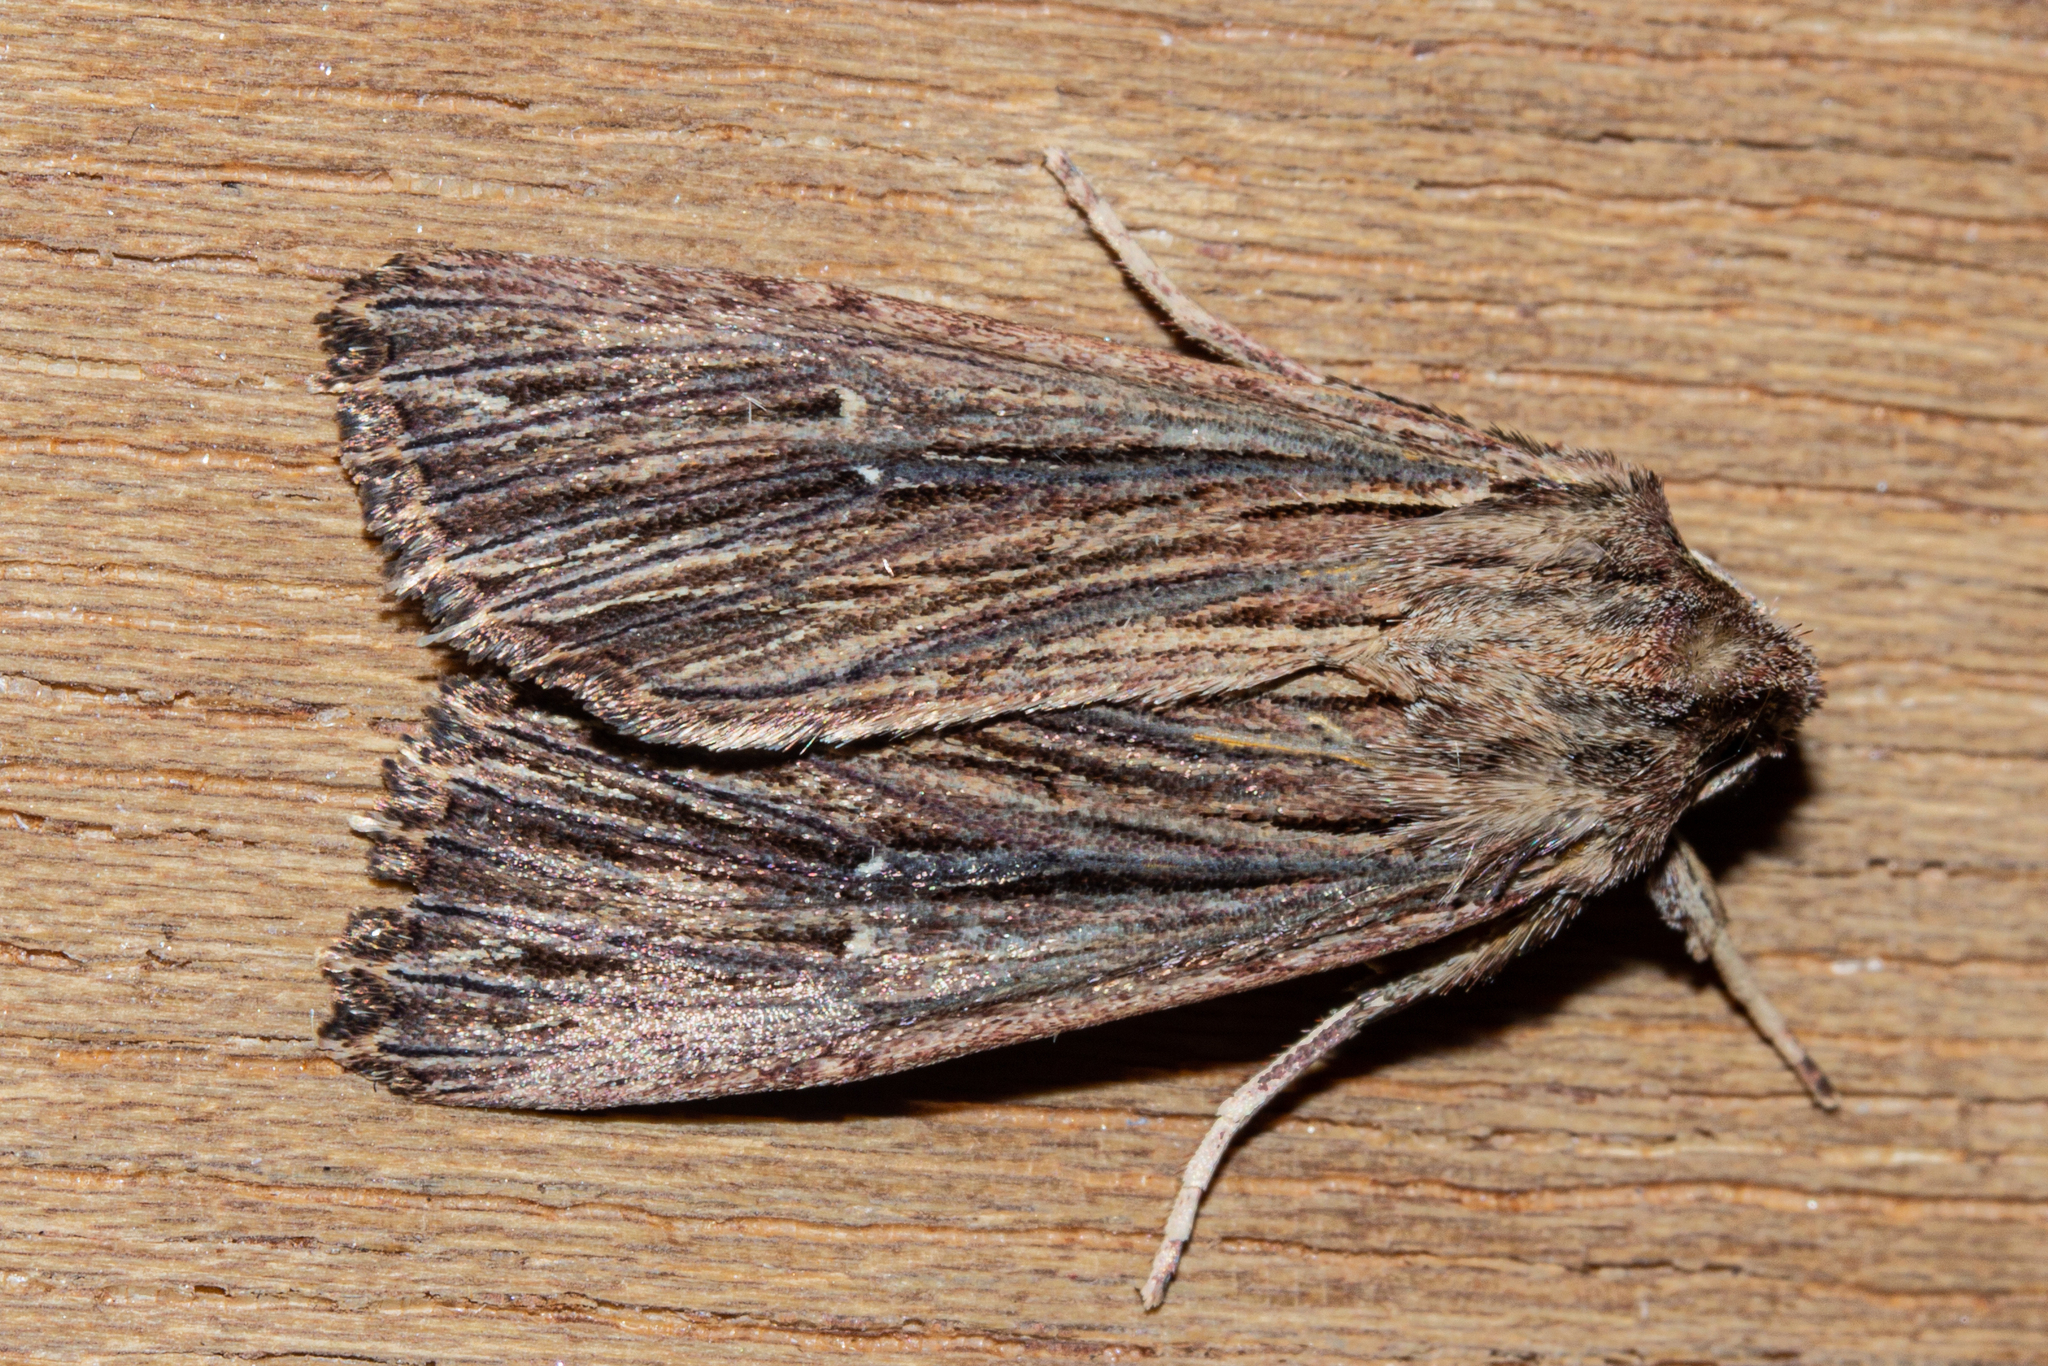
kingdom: Animalia
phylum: Arthropoda
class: Insecta
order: Lepidoptera
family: Noctuidae
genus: Ichneutica
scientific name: Ichneutica
